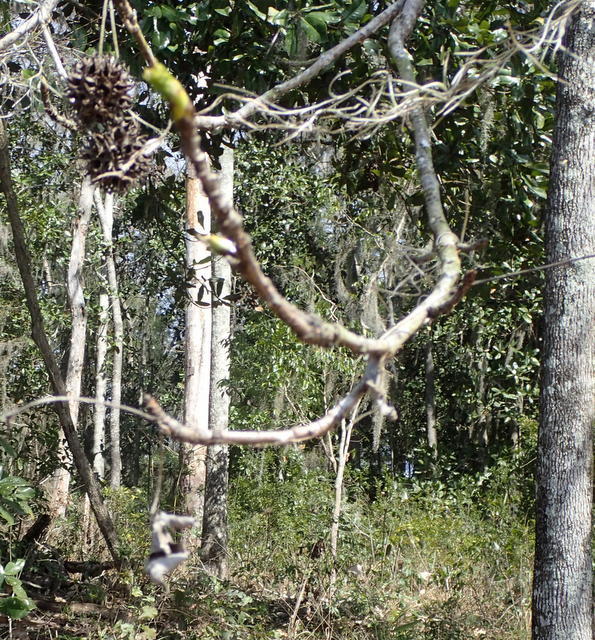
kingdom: Plantae
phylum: Tracheophyta
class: Magnoliopsida
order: Saxifragales
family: Altingiaceae
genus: Liquidambar
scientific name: Liquidambar styraciflua
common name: Sweet gum
